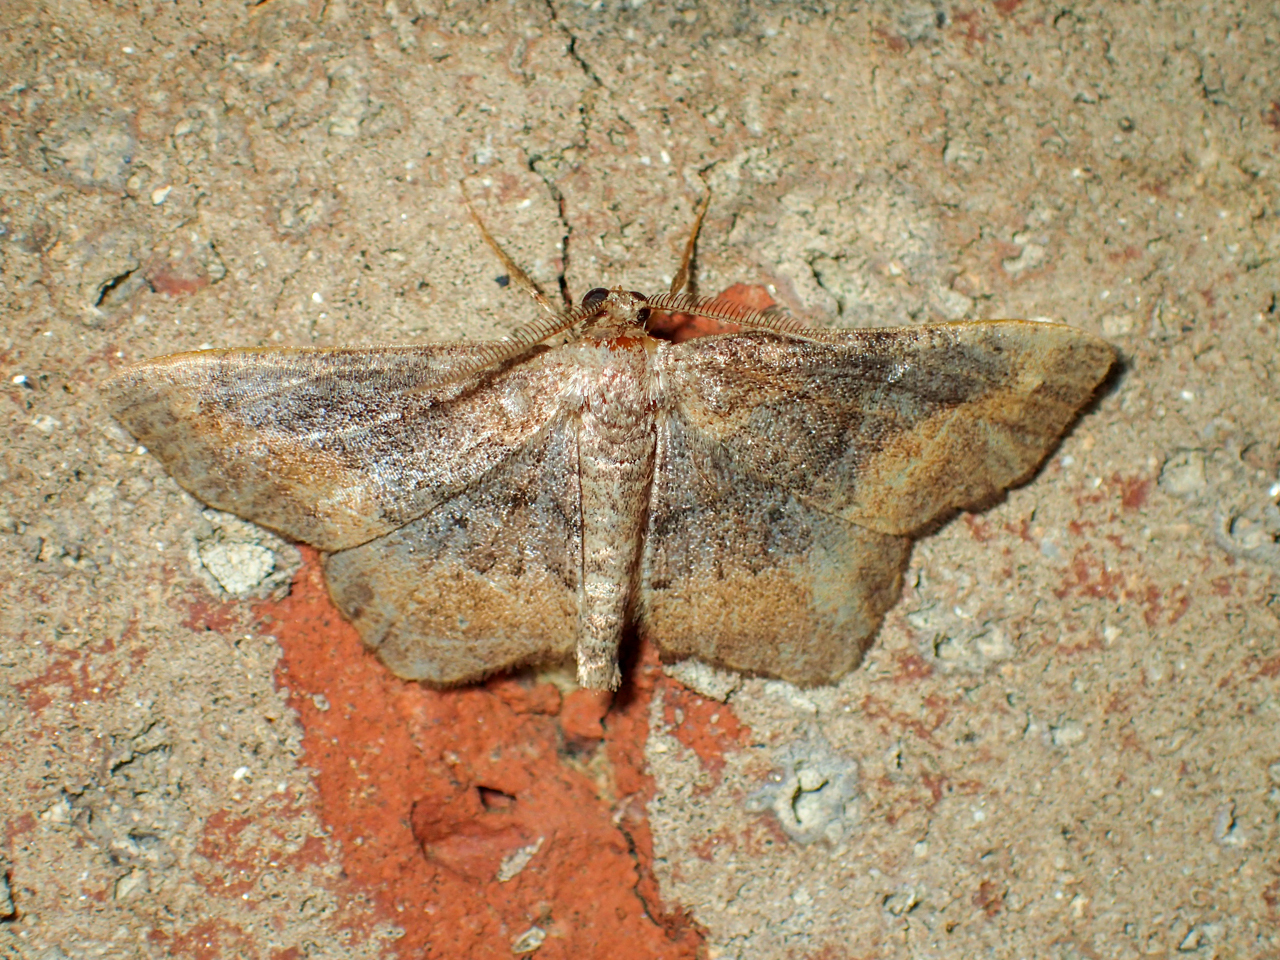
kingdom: Animalia
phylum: Arthropoda
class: Insecta
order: Lepidoptera
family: Geometridae
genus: Hypagyrtis
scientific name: Hypagyrtis esther
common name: Esther moth
